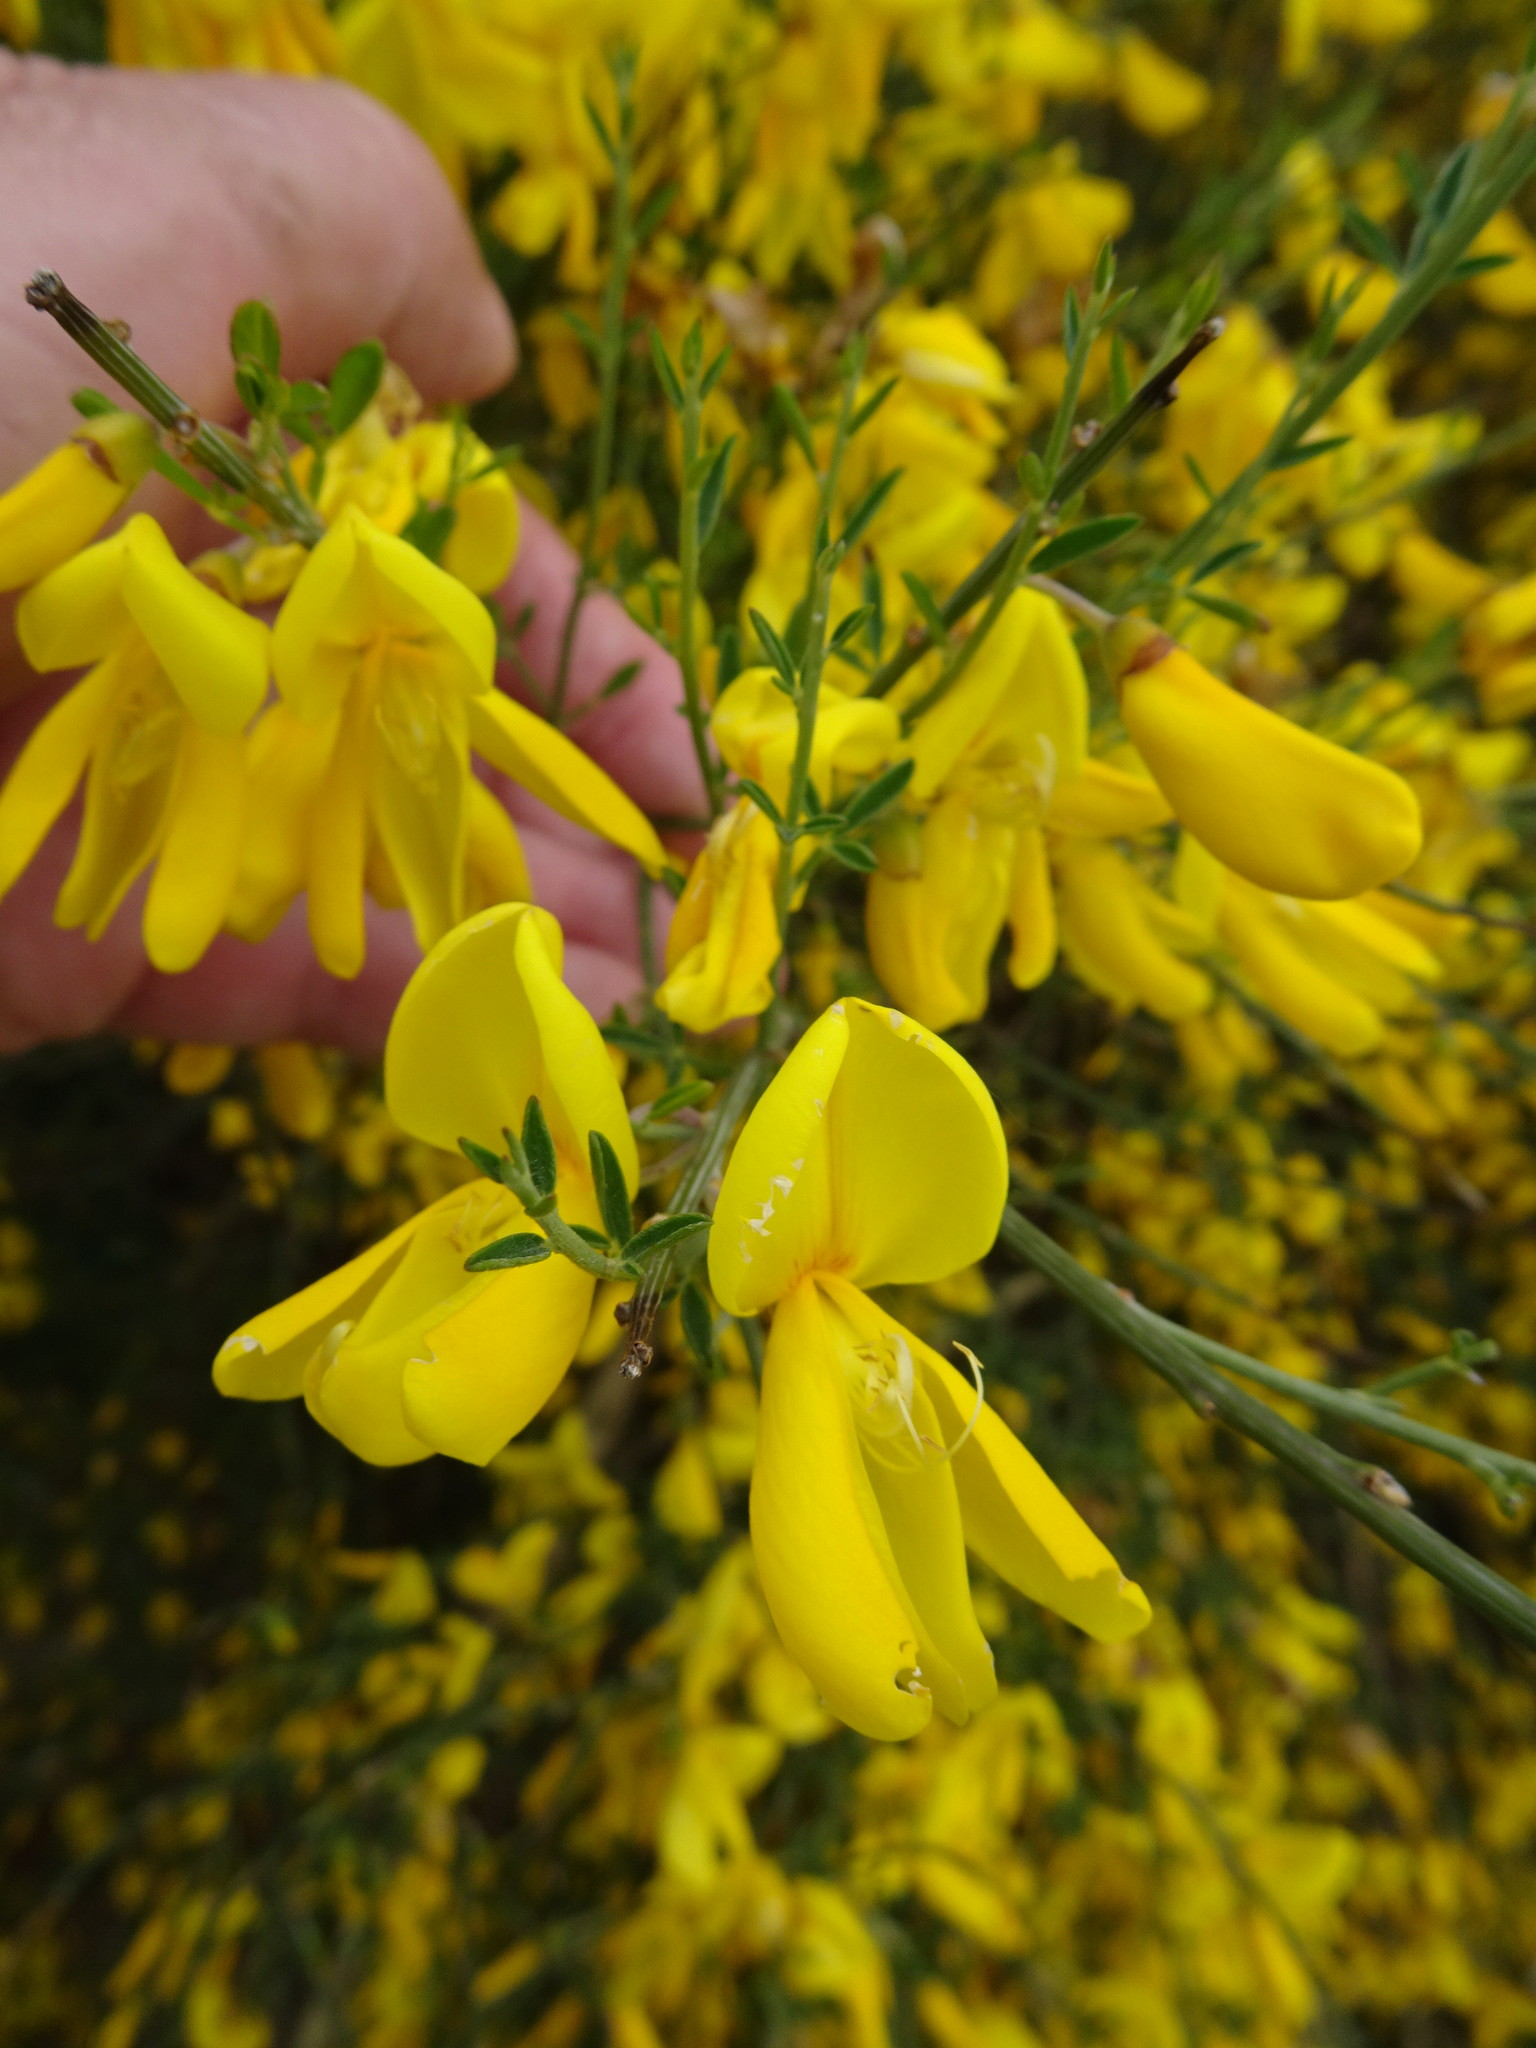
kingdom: Plantae
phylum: Tracheophyta
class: Magnoliopsida
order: Fabales
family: Fabaceae
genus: Cytisus
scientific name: Cytisus scoparius
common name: Scotch broom
